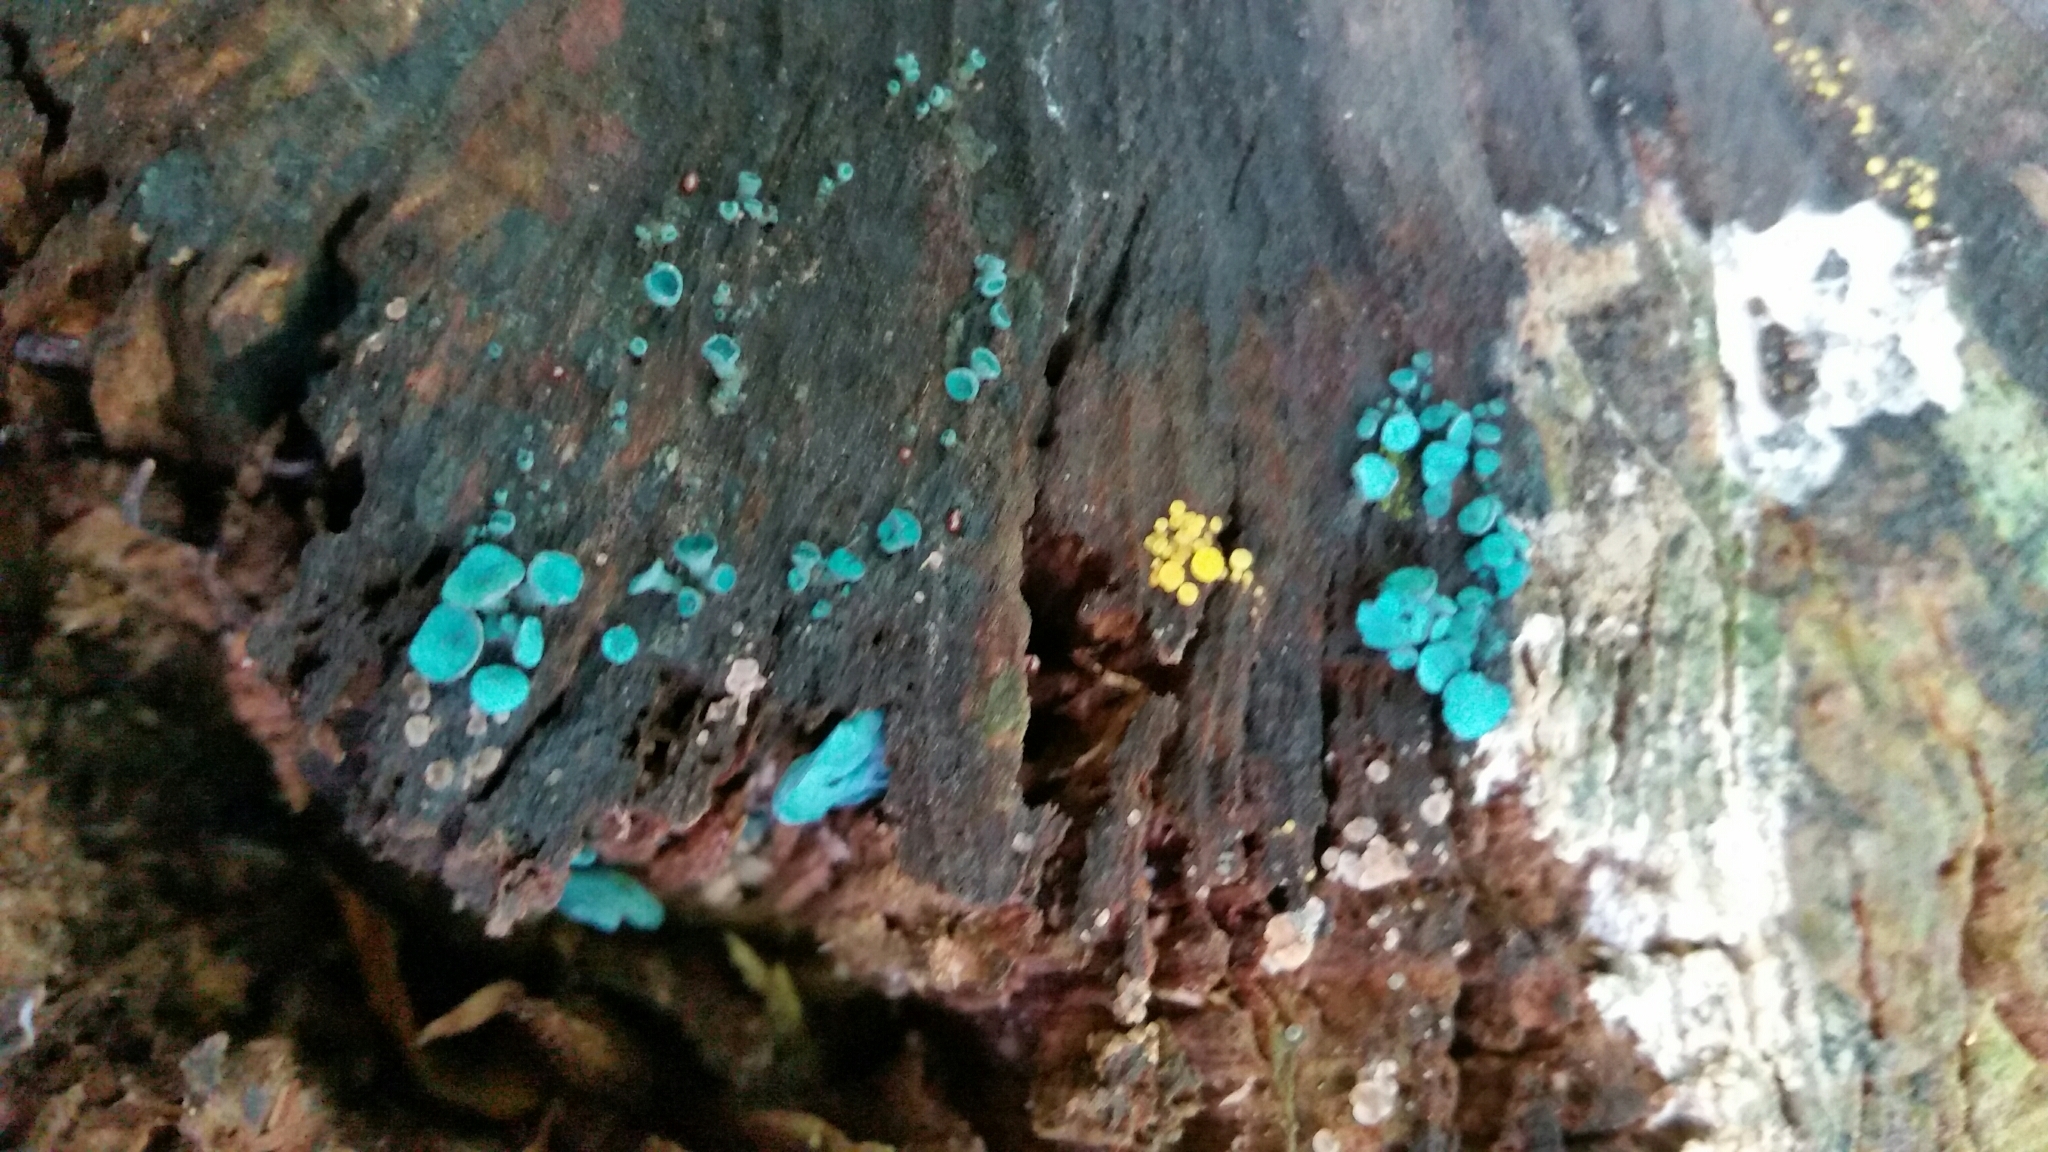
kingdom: Fungi
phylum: Ascomycota
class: Leotiomycetes
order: Helotiales
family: Chlorociboriaceae
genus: Chlorociboria
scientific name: Chlorociboria aeruginascens
